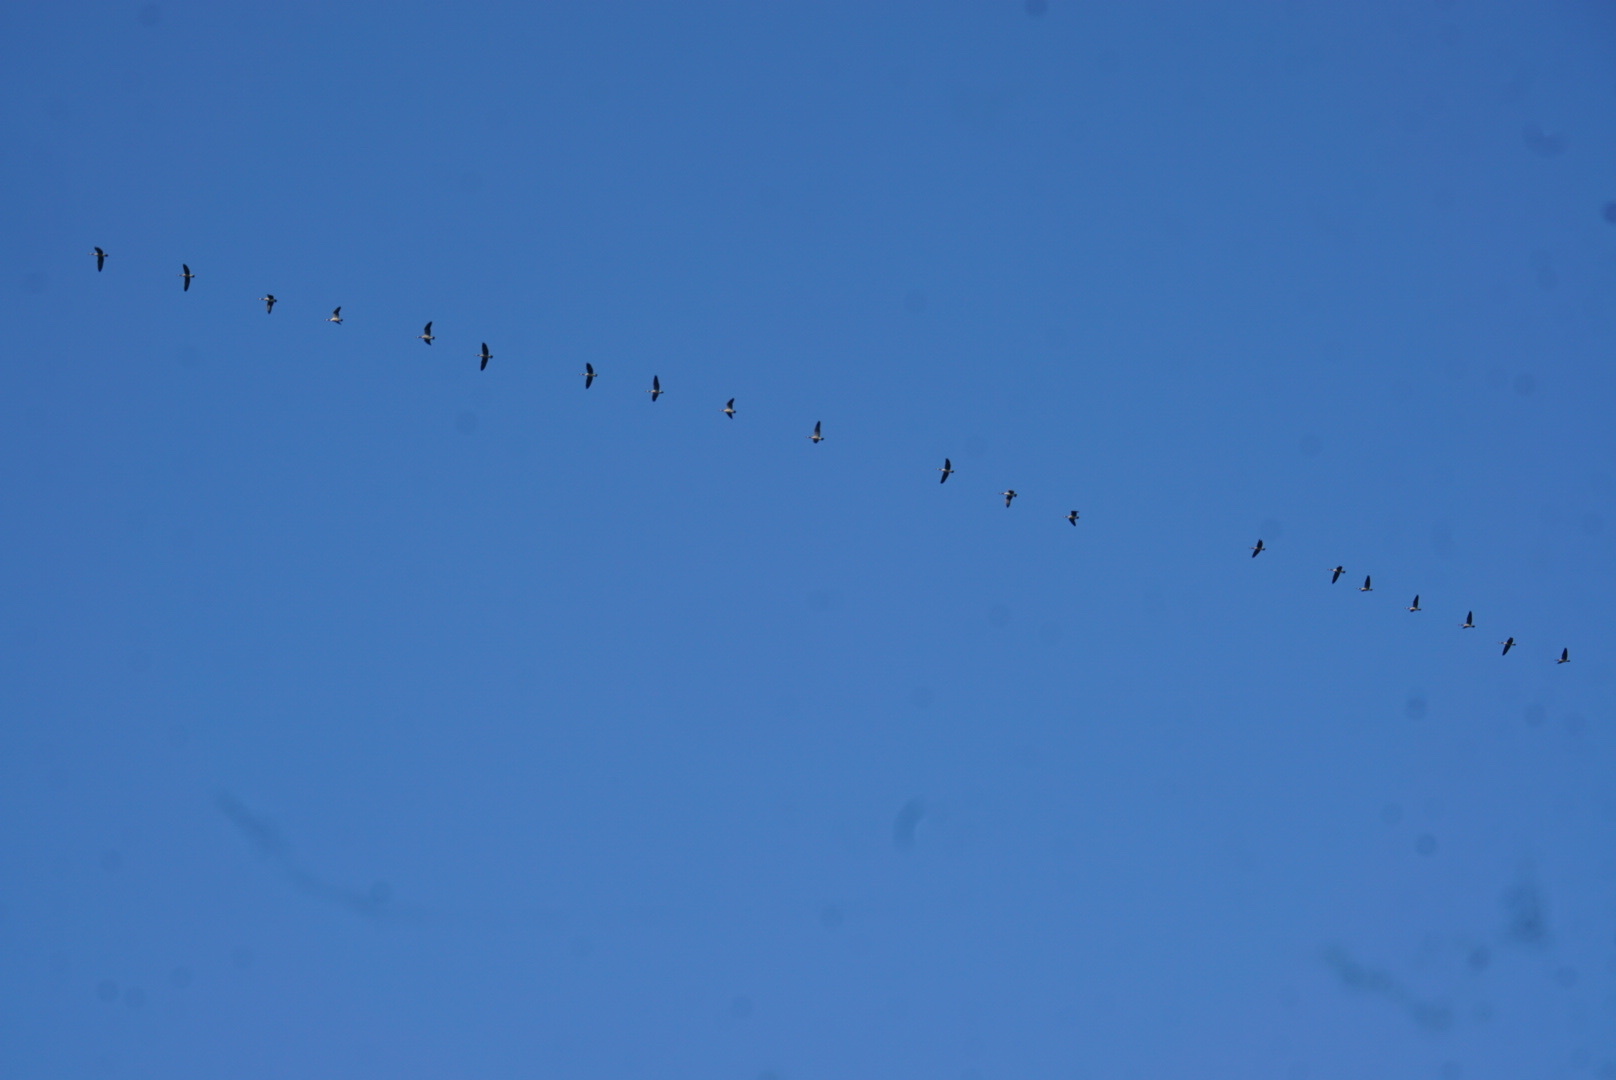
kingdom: Animalia
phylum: Chordata
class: Aves
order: Anseriformes
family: Anatidae
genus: Branta
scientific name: Branta canadensis
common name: Canada goose
